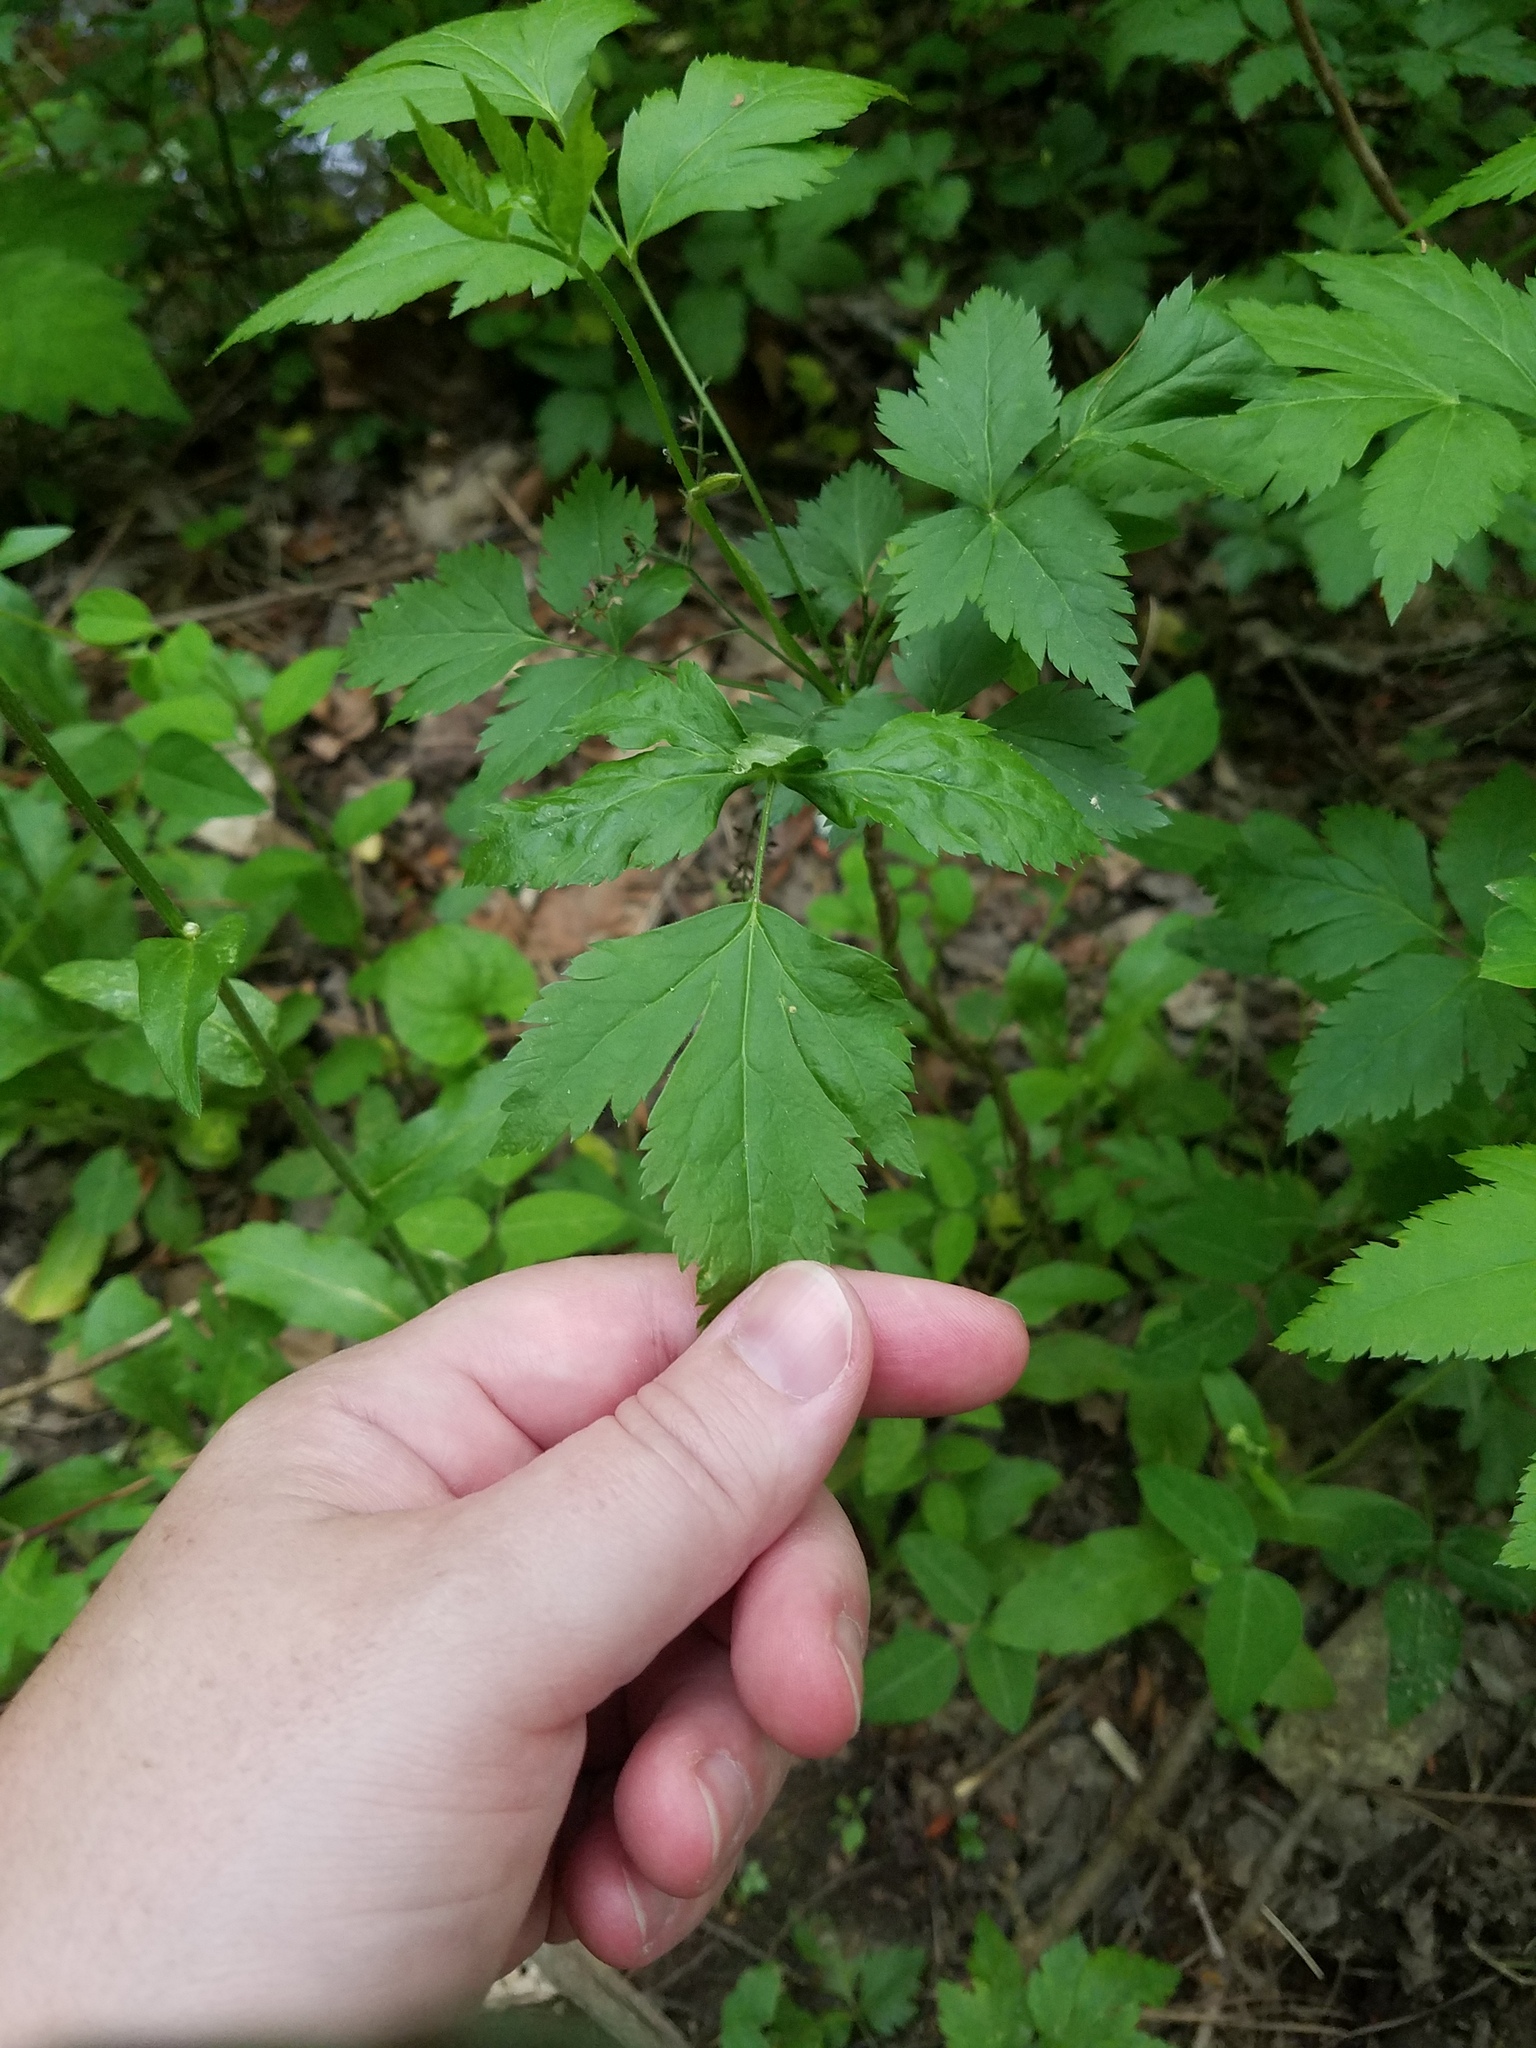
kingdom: Plantae
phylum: Tracheophyta
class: Magnoliopsida
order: Ranunculales
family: Ranunculaceae
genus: Xanthorhiza
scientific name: Xanthorhiza simplicissima
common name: Yellowroot
